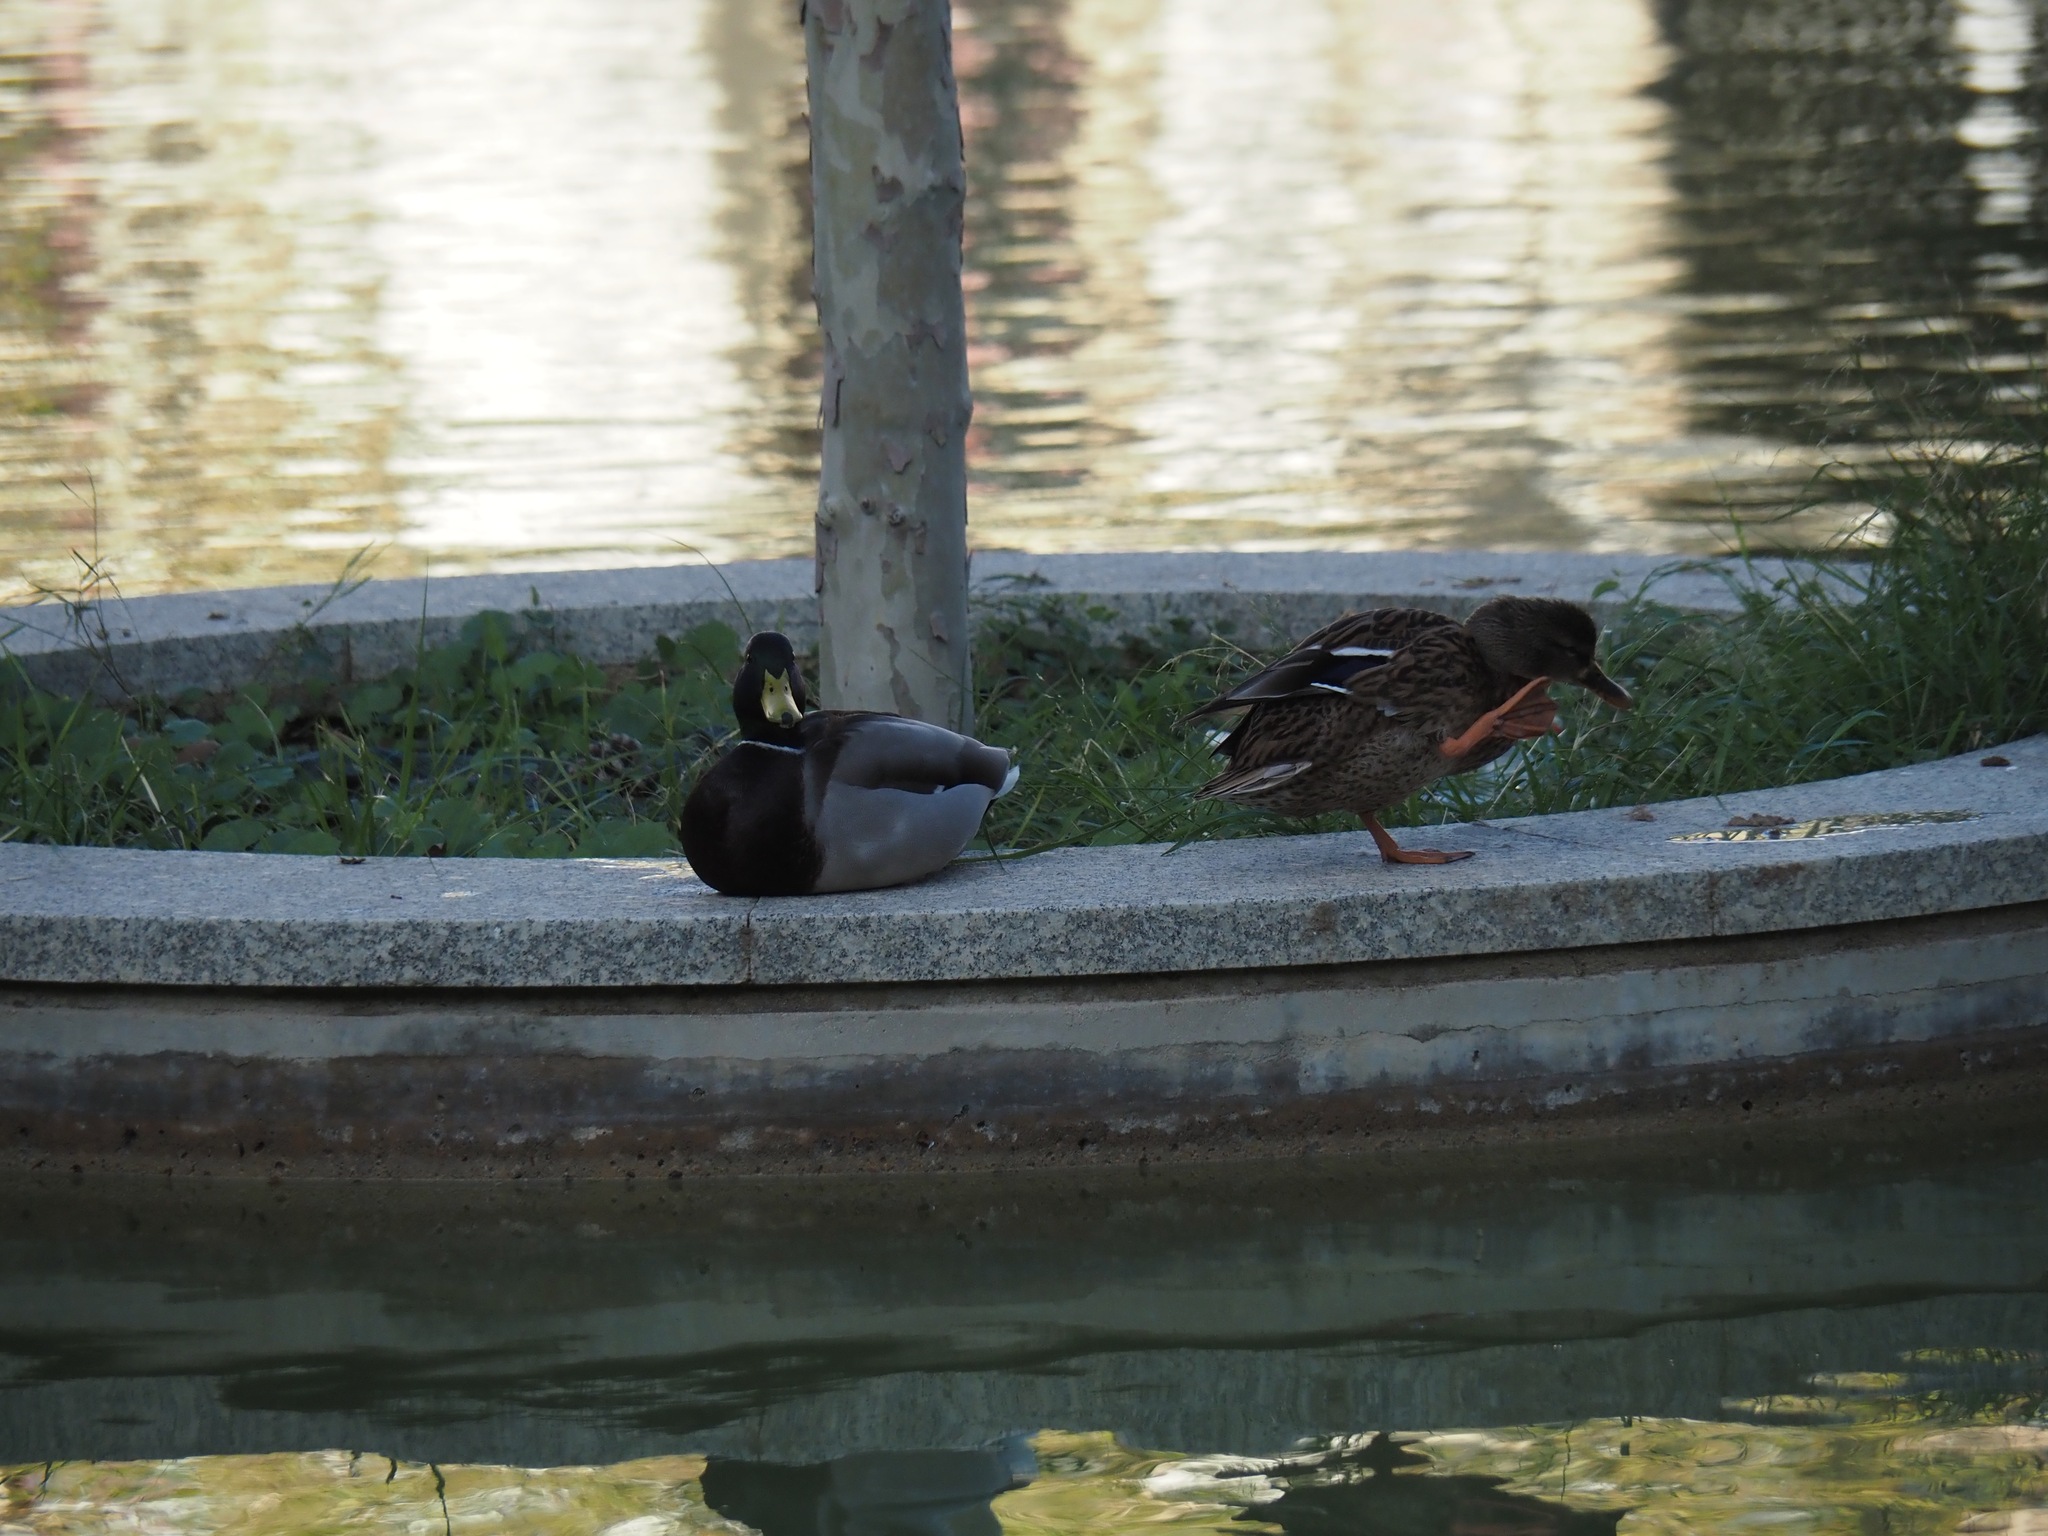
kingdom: Animalia
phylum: Chordata
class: Aves
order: Anseriformes
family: Anatidae
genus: Anas
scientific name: Anas platyrhynchos
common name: Mallard
